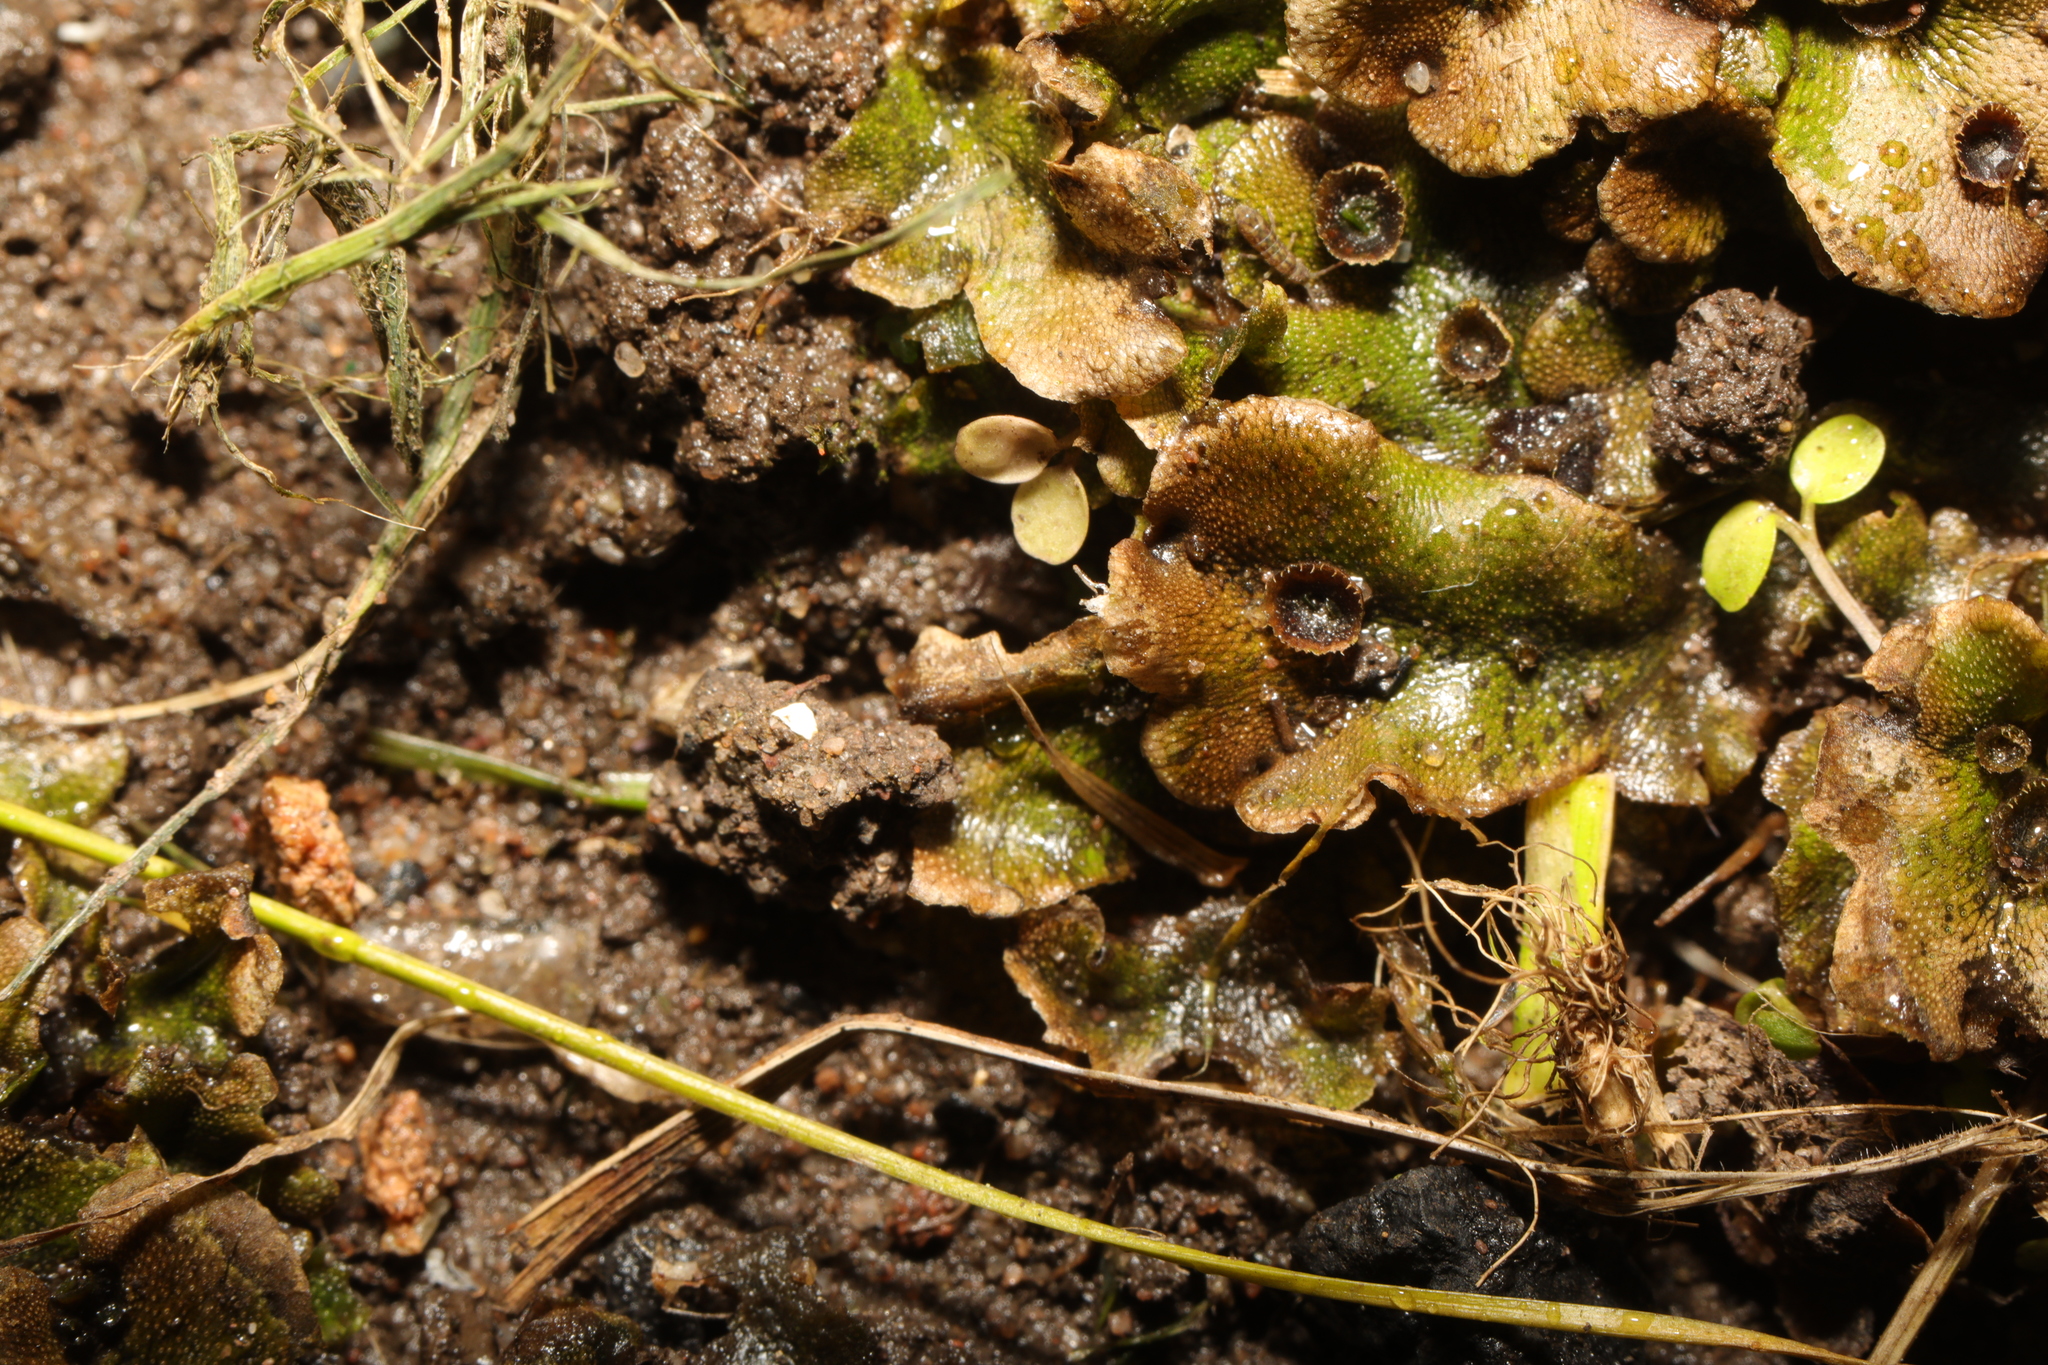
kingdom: Plantae
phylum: Marchantiophyta
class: Marchantiopsida
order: Marchantiales
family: Marchantiaceae
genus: Marchantia
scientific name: Marchantia polymorpha
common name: Common liverwort
